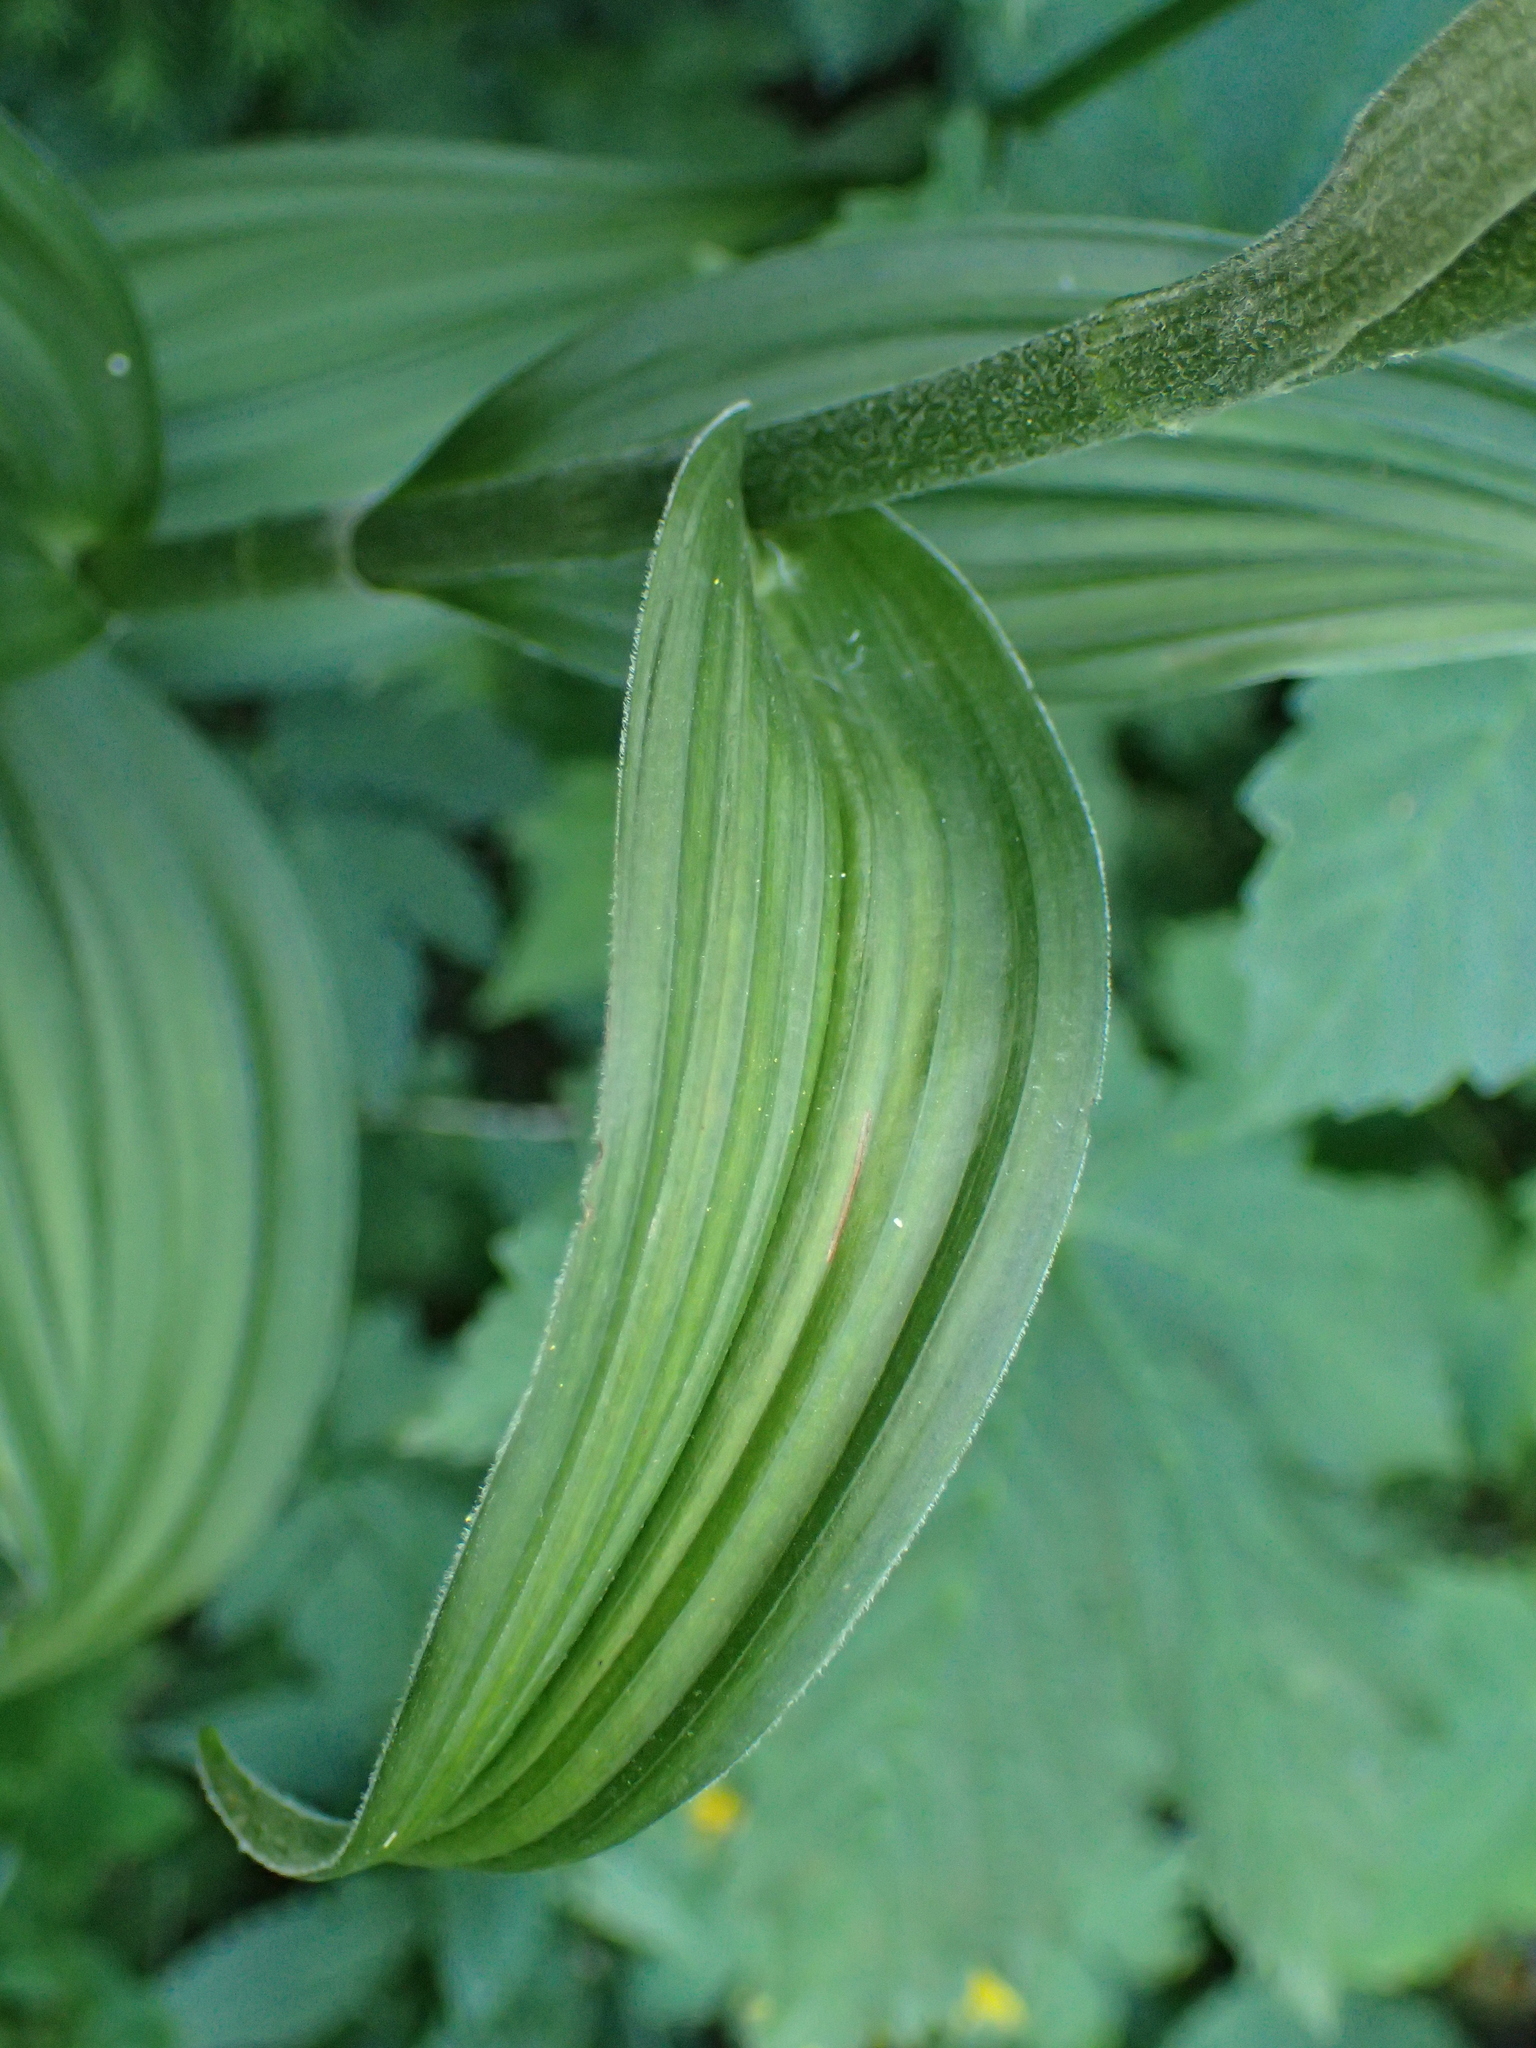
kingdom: Plantae
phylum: Tracheophyta
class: Liliopsida
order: Liliales
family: Melanthiaceae
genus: Veratrum
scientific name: Veratrum album
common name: White veratrum
